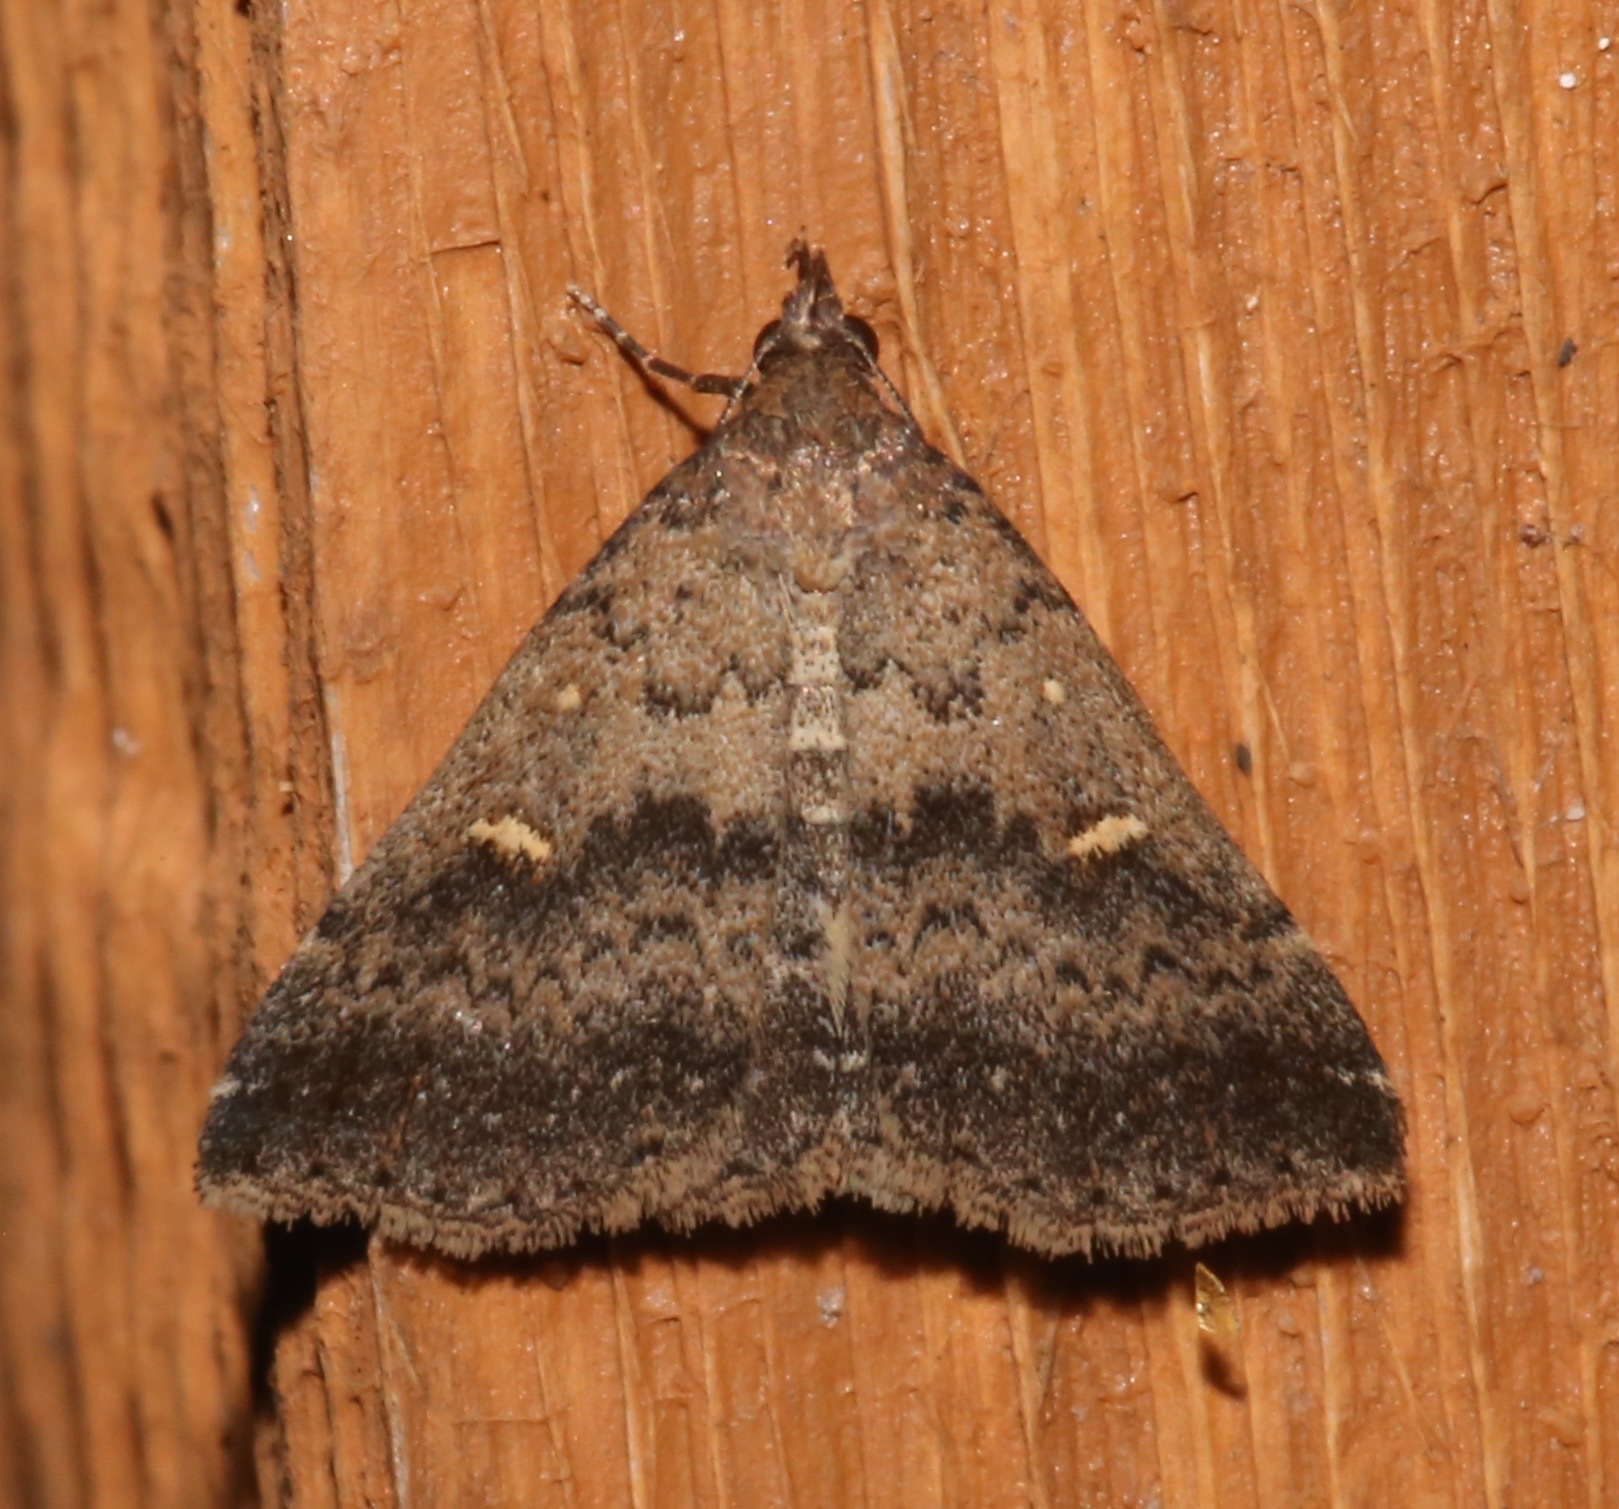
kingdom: Animalia
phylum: Arthropoda
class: Insecta
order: Lepidoptera
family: Erebidae
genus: Tetanolita
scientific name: Tetanolita floridana
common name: Florida tetanolita moth
